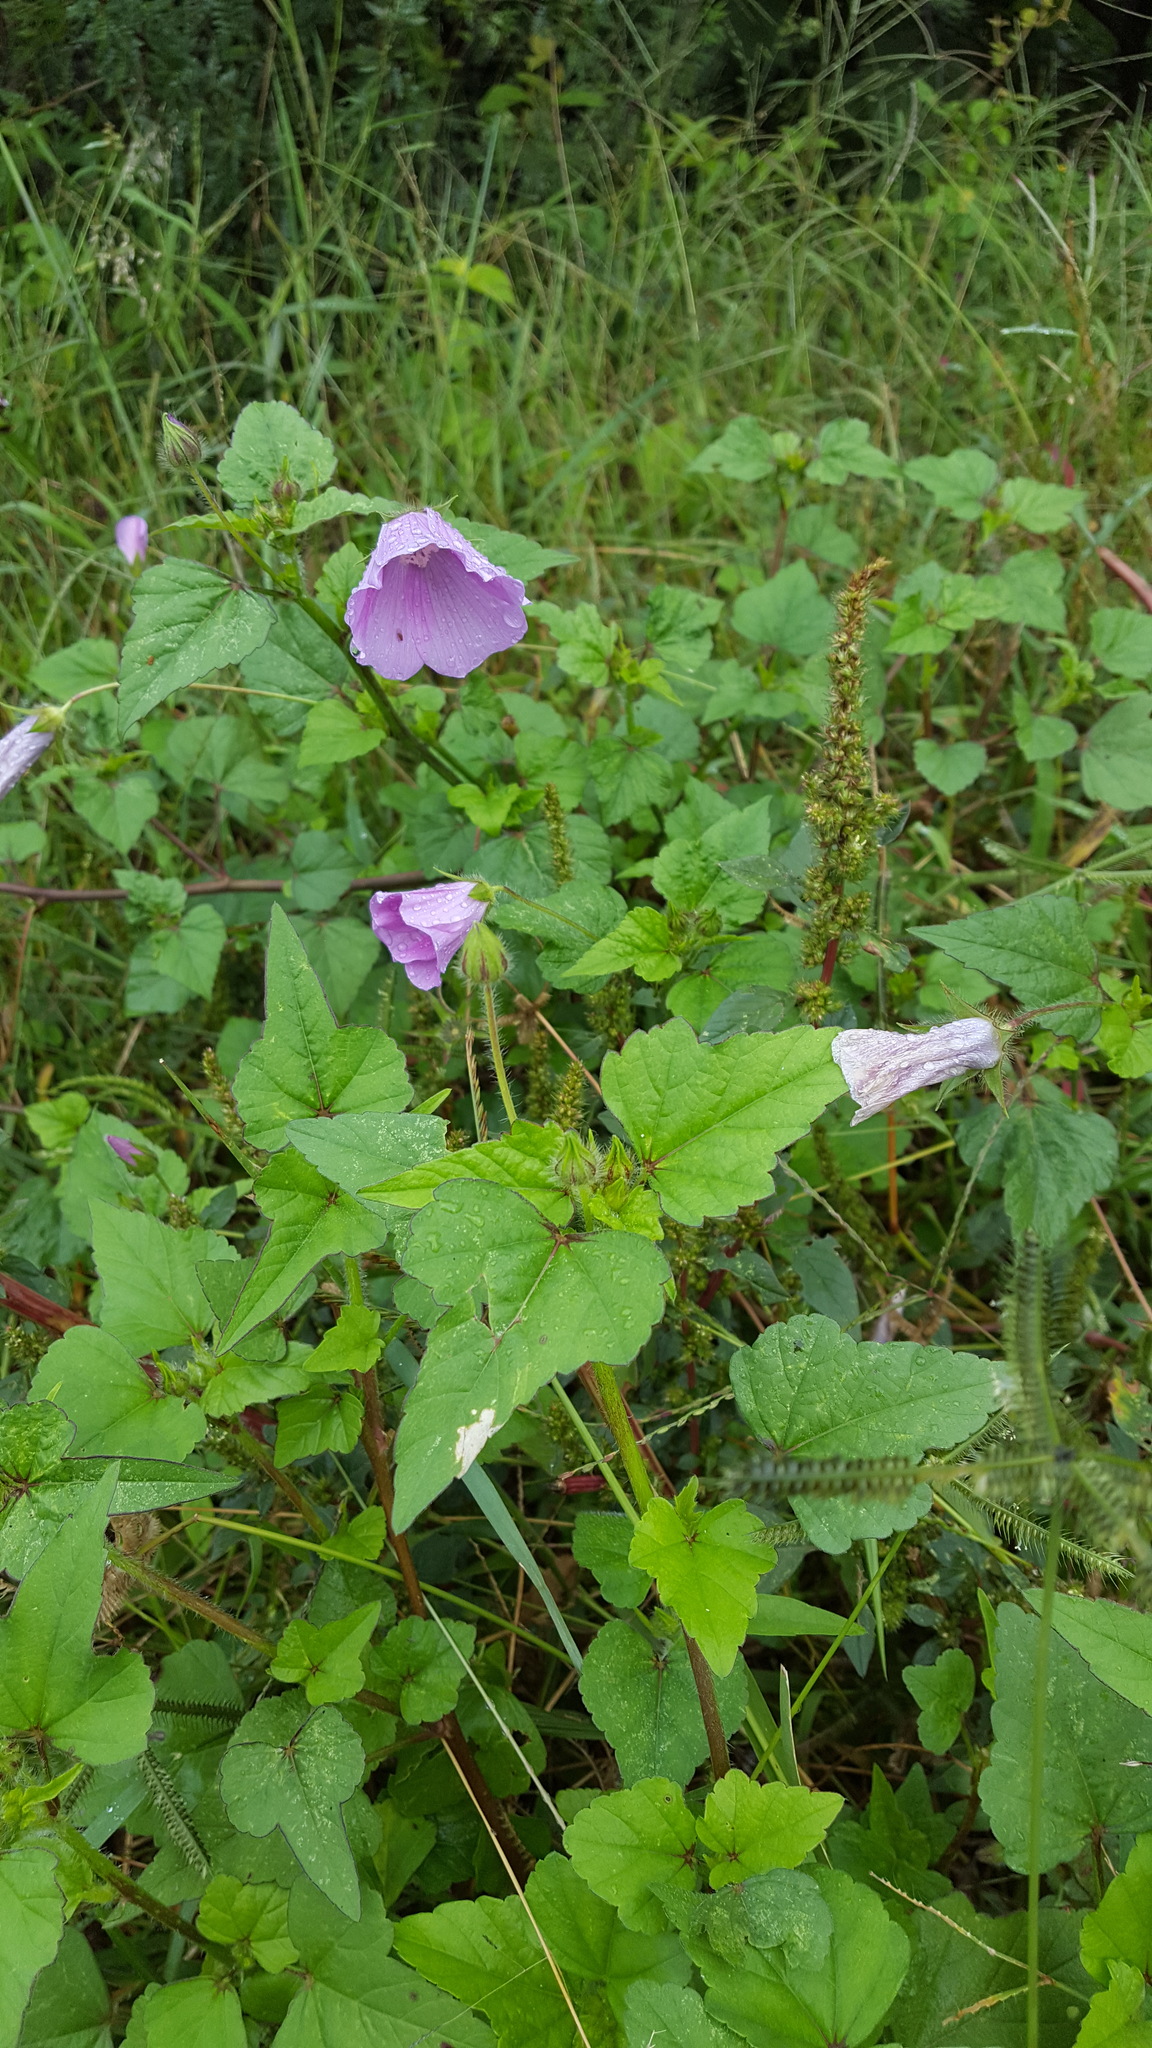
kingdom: Plantae
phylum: Tracheophyta
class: Magnoliopsida
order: Malvales
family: Malvaceae
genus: Anoda
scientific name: Anoda cristata
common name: Spurred anoda
